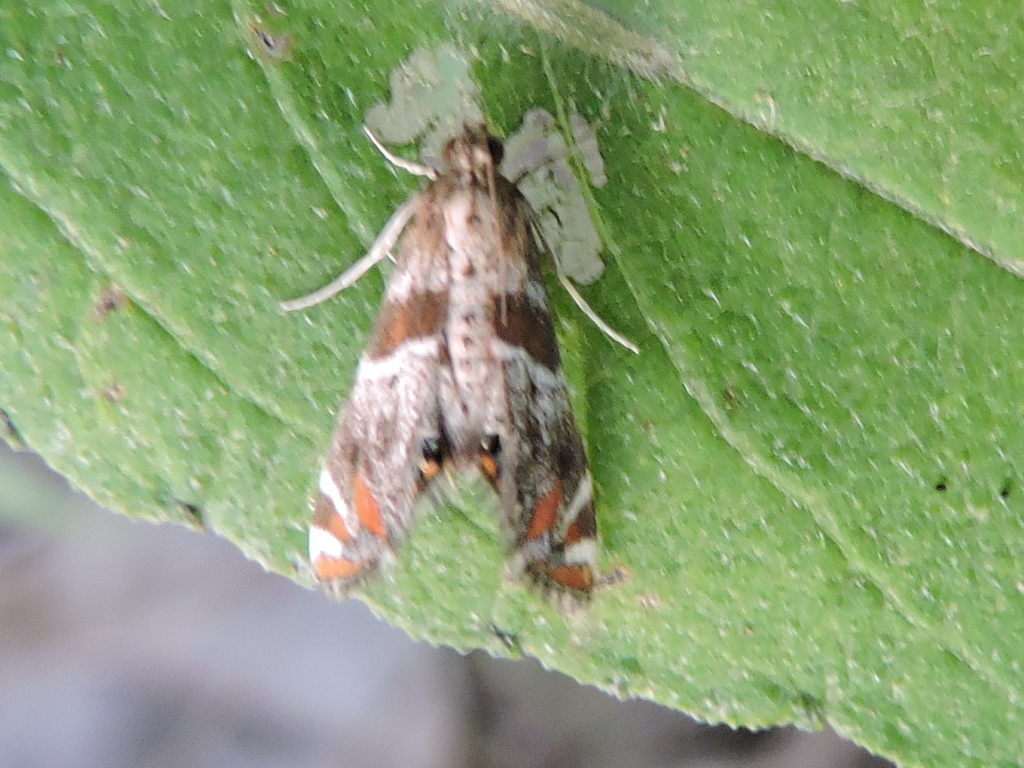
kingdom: Animalia
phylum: Arthropoda
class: Insecta
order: Lepidoptera
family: Crambidae
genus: Petrophila
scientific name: Petrophila jaliscalis
